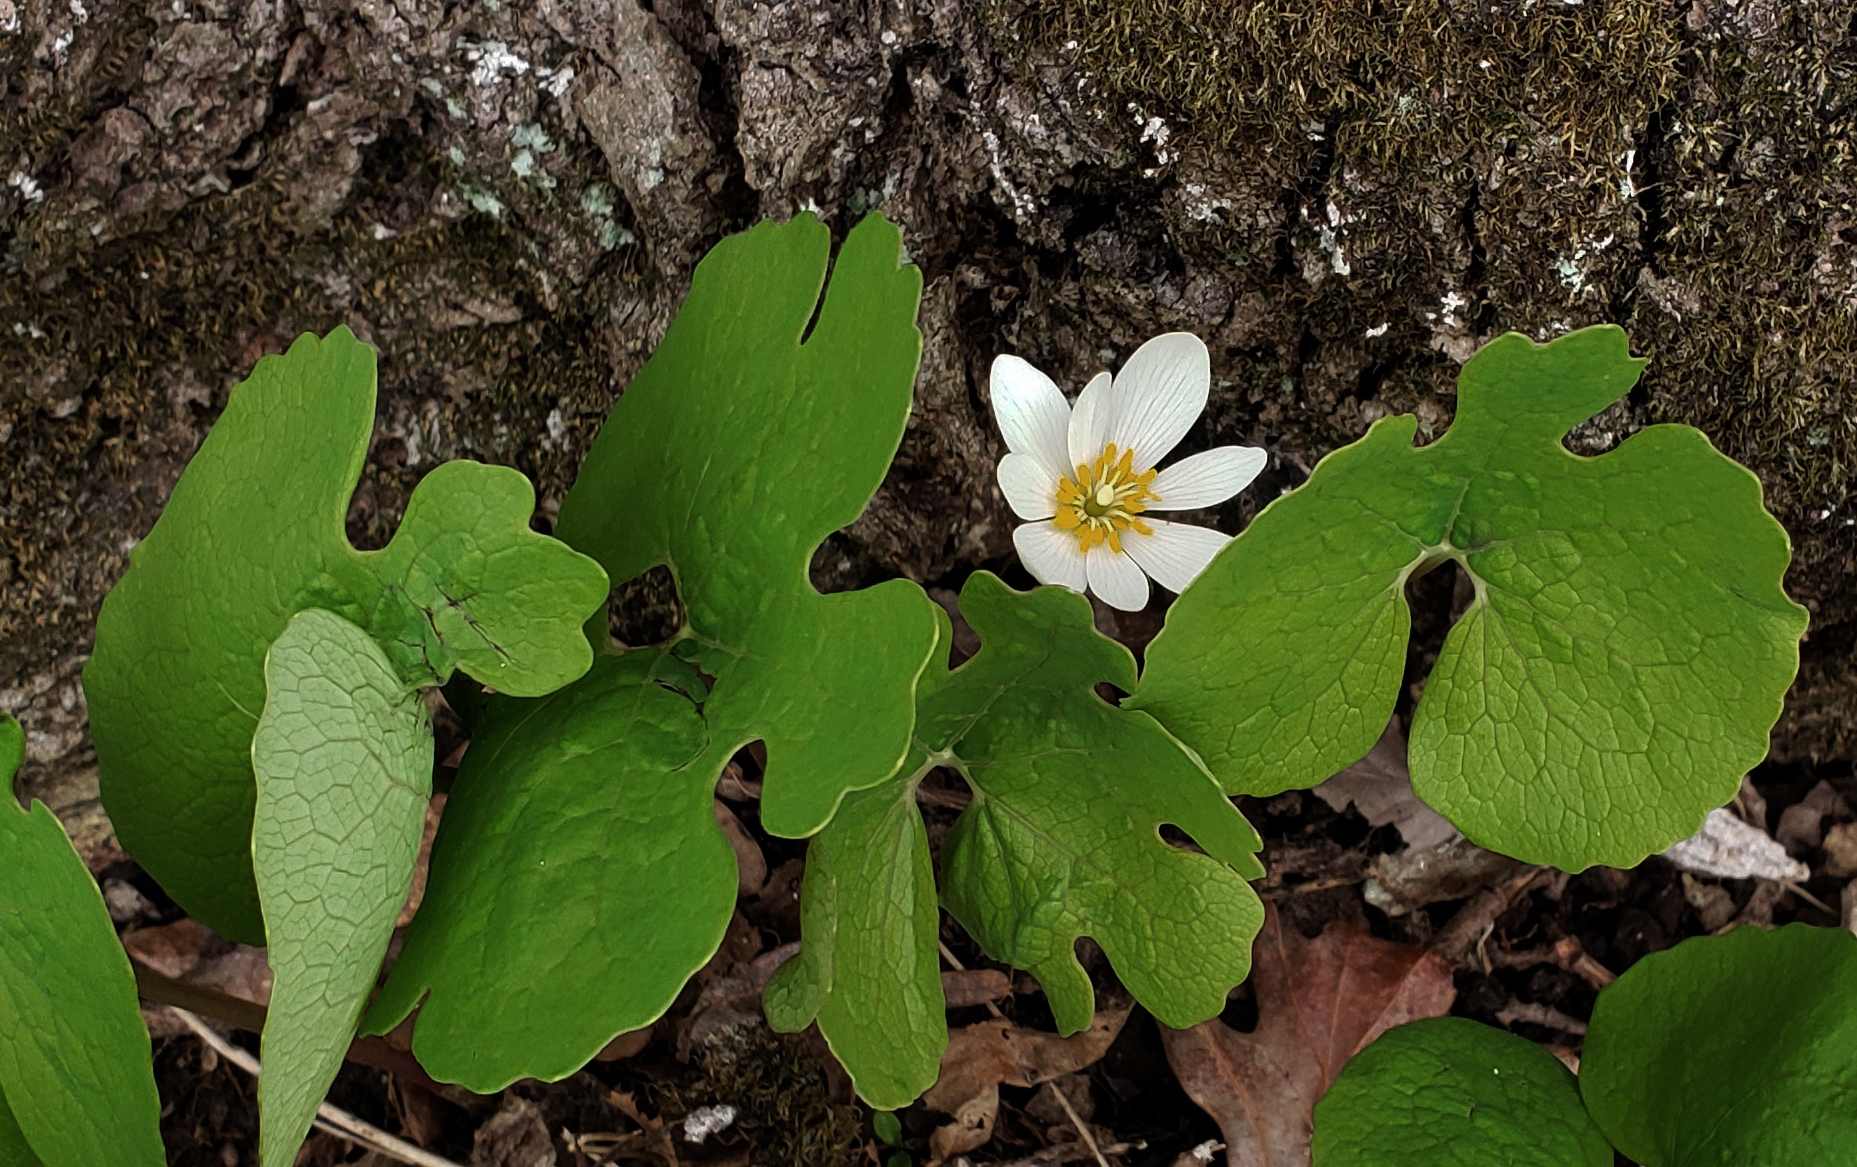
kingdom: Plantae
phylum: Tracheophyta
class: Magnoliopsida
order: Ranunculales
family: Papaveraceae
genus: Sanguinaria
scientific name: Sanguinaria canadensis
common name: Bloodroot
